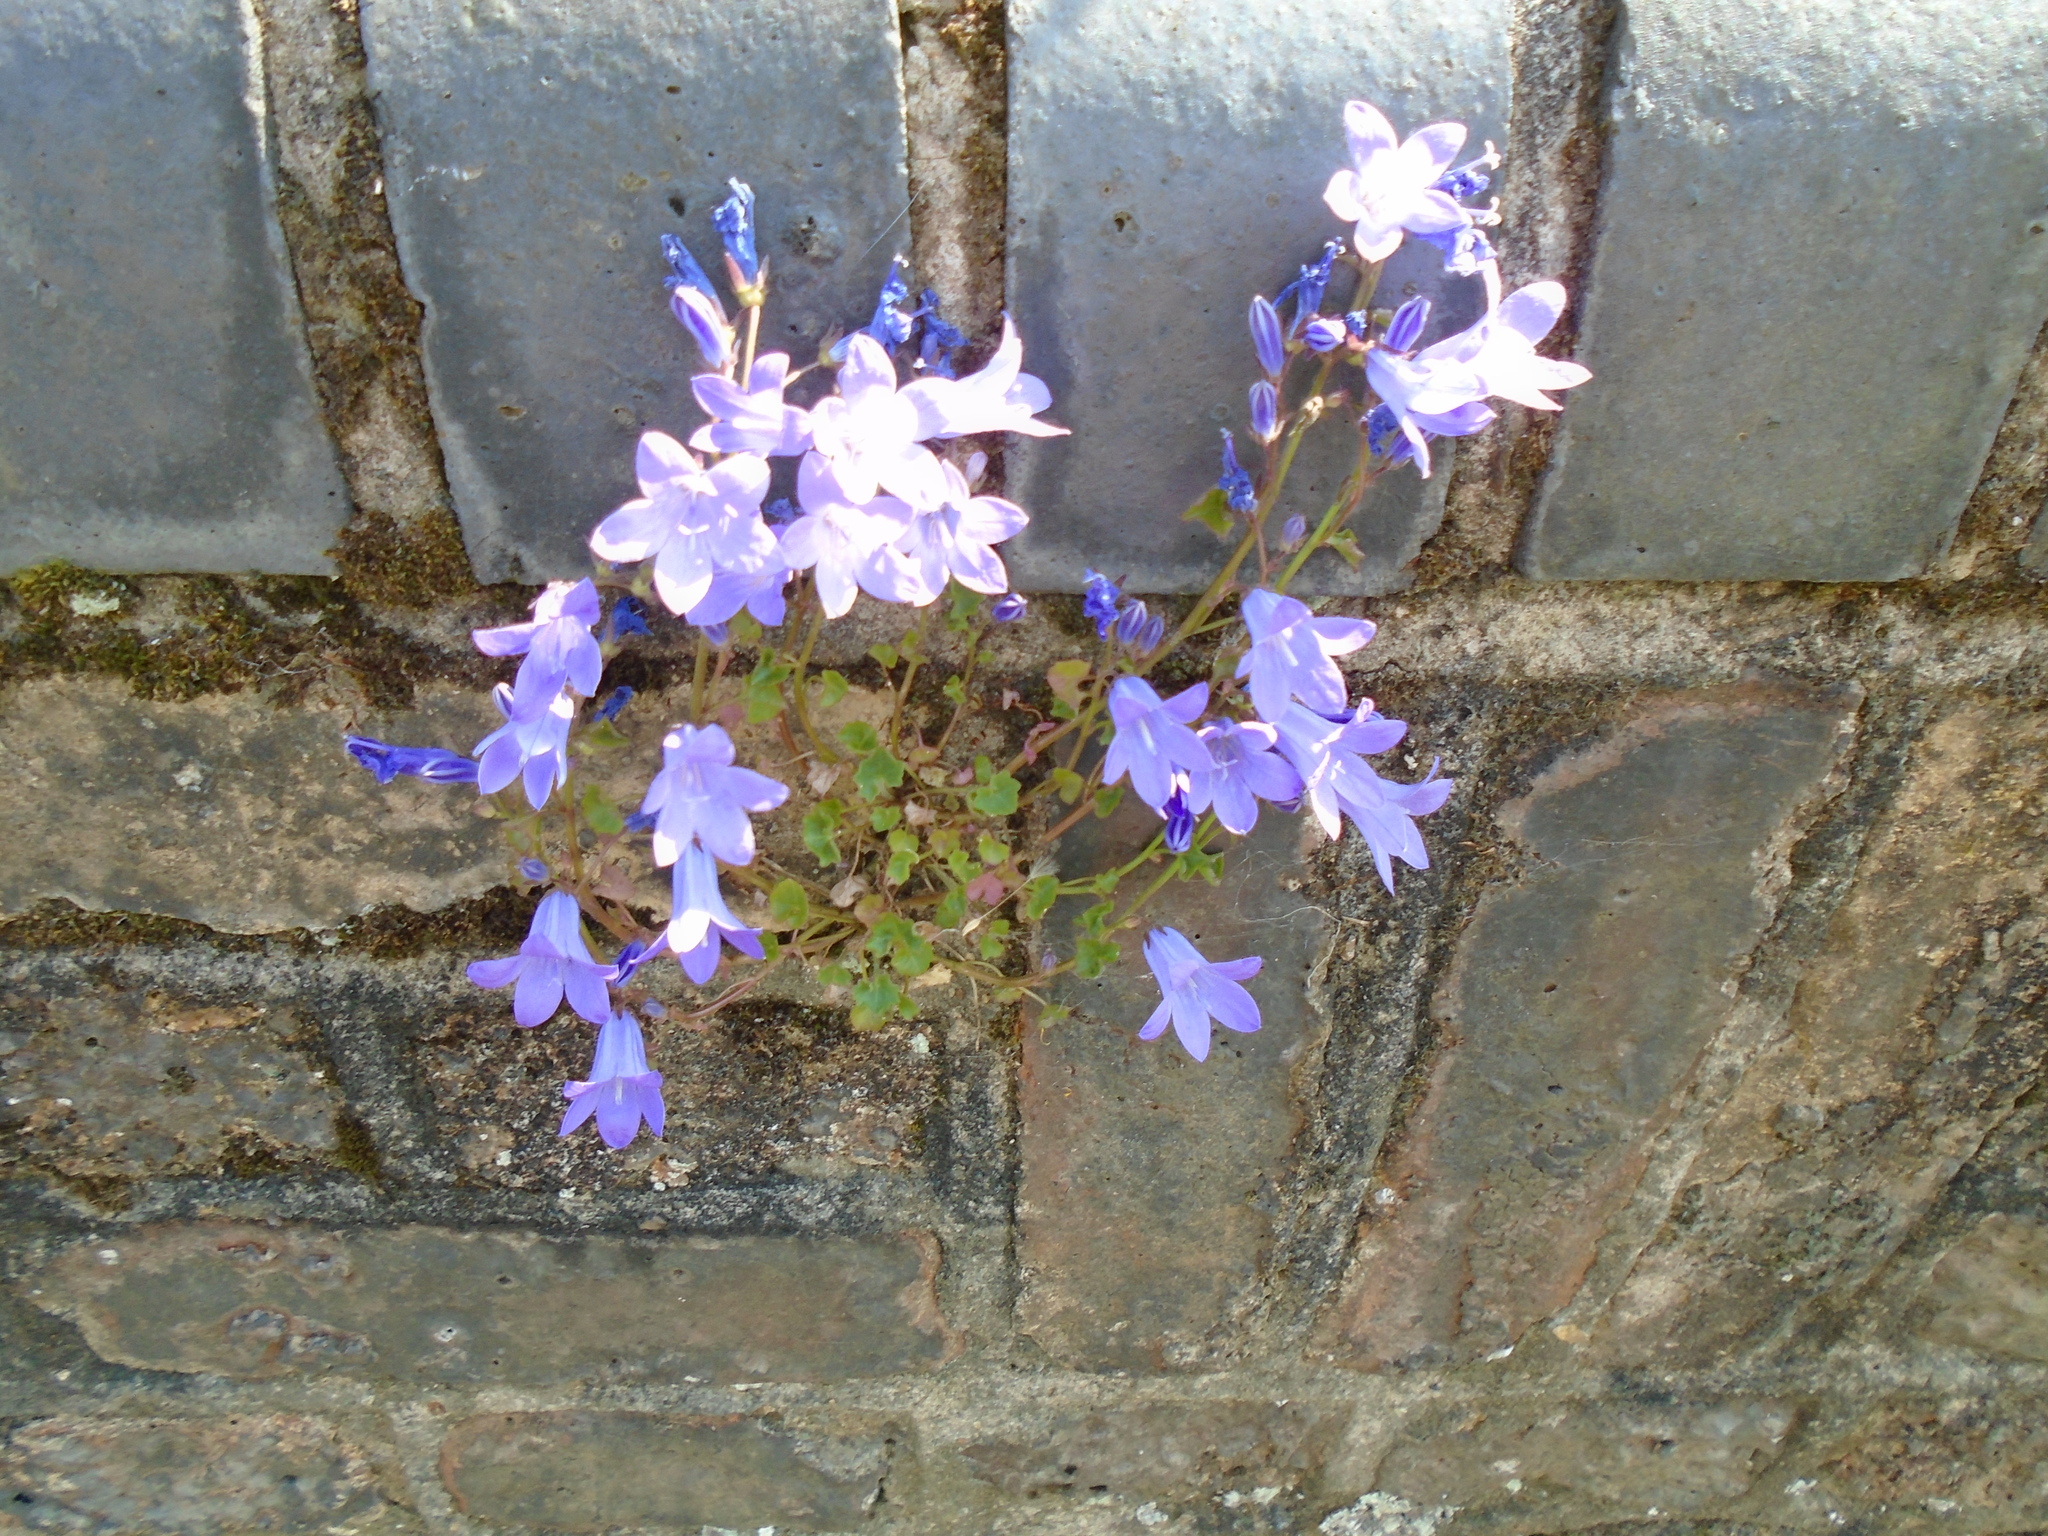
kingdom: Plantae
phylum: Tracheophyta
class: Magnoliopsida
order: Asterales
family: Campanulaceae
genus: Campanula
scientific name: Campanula portenschlagiana
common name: Adria bellflower
